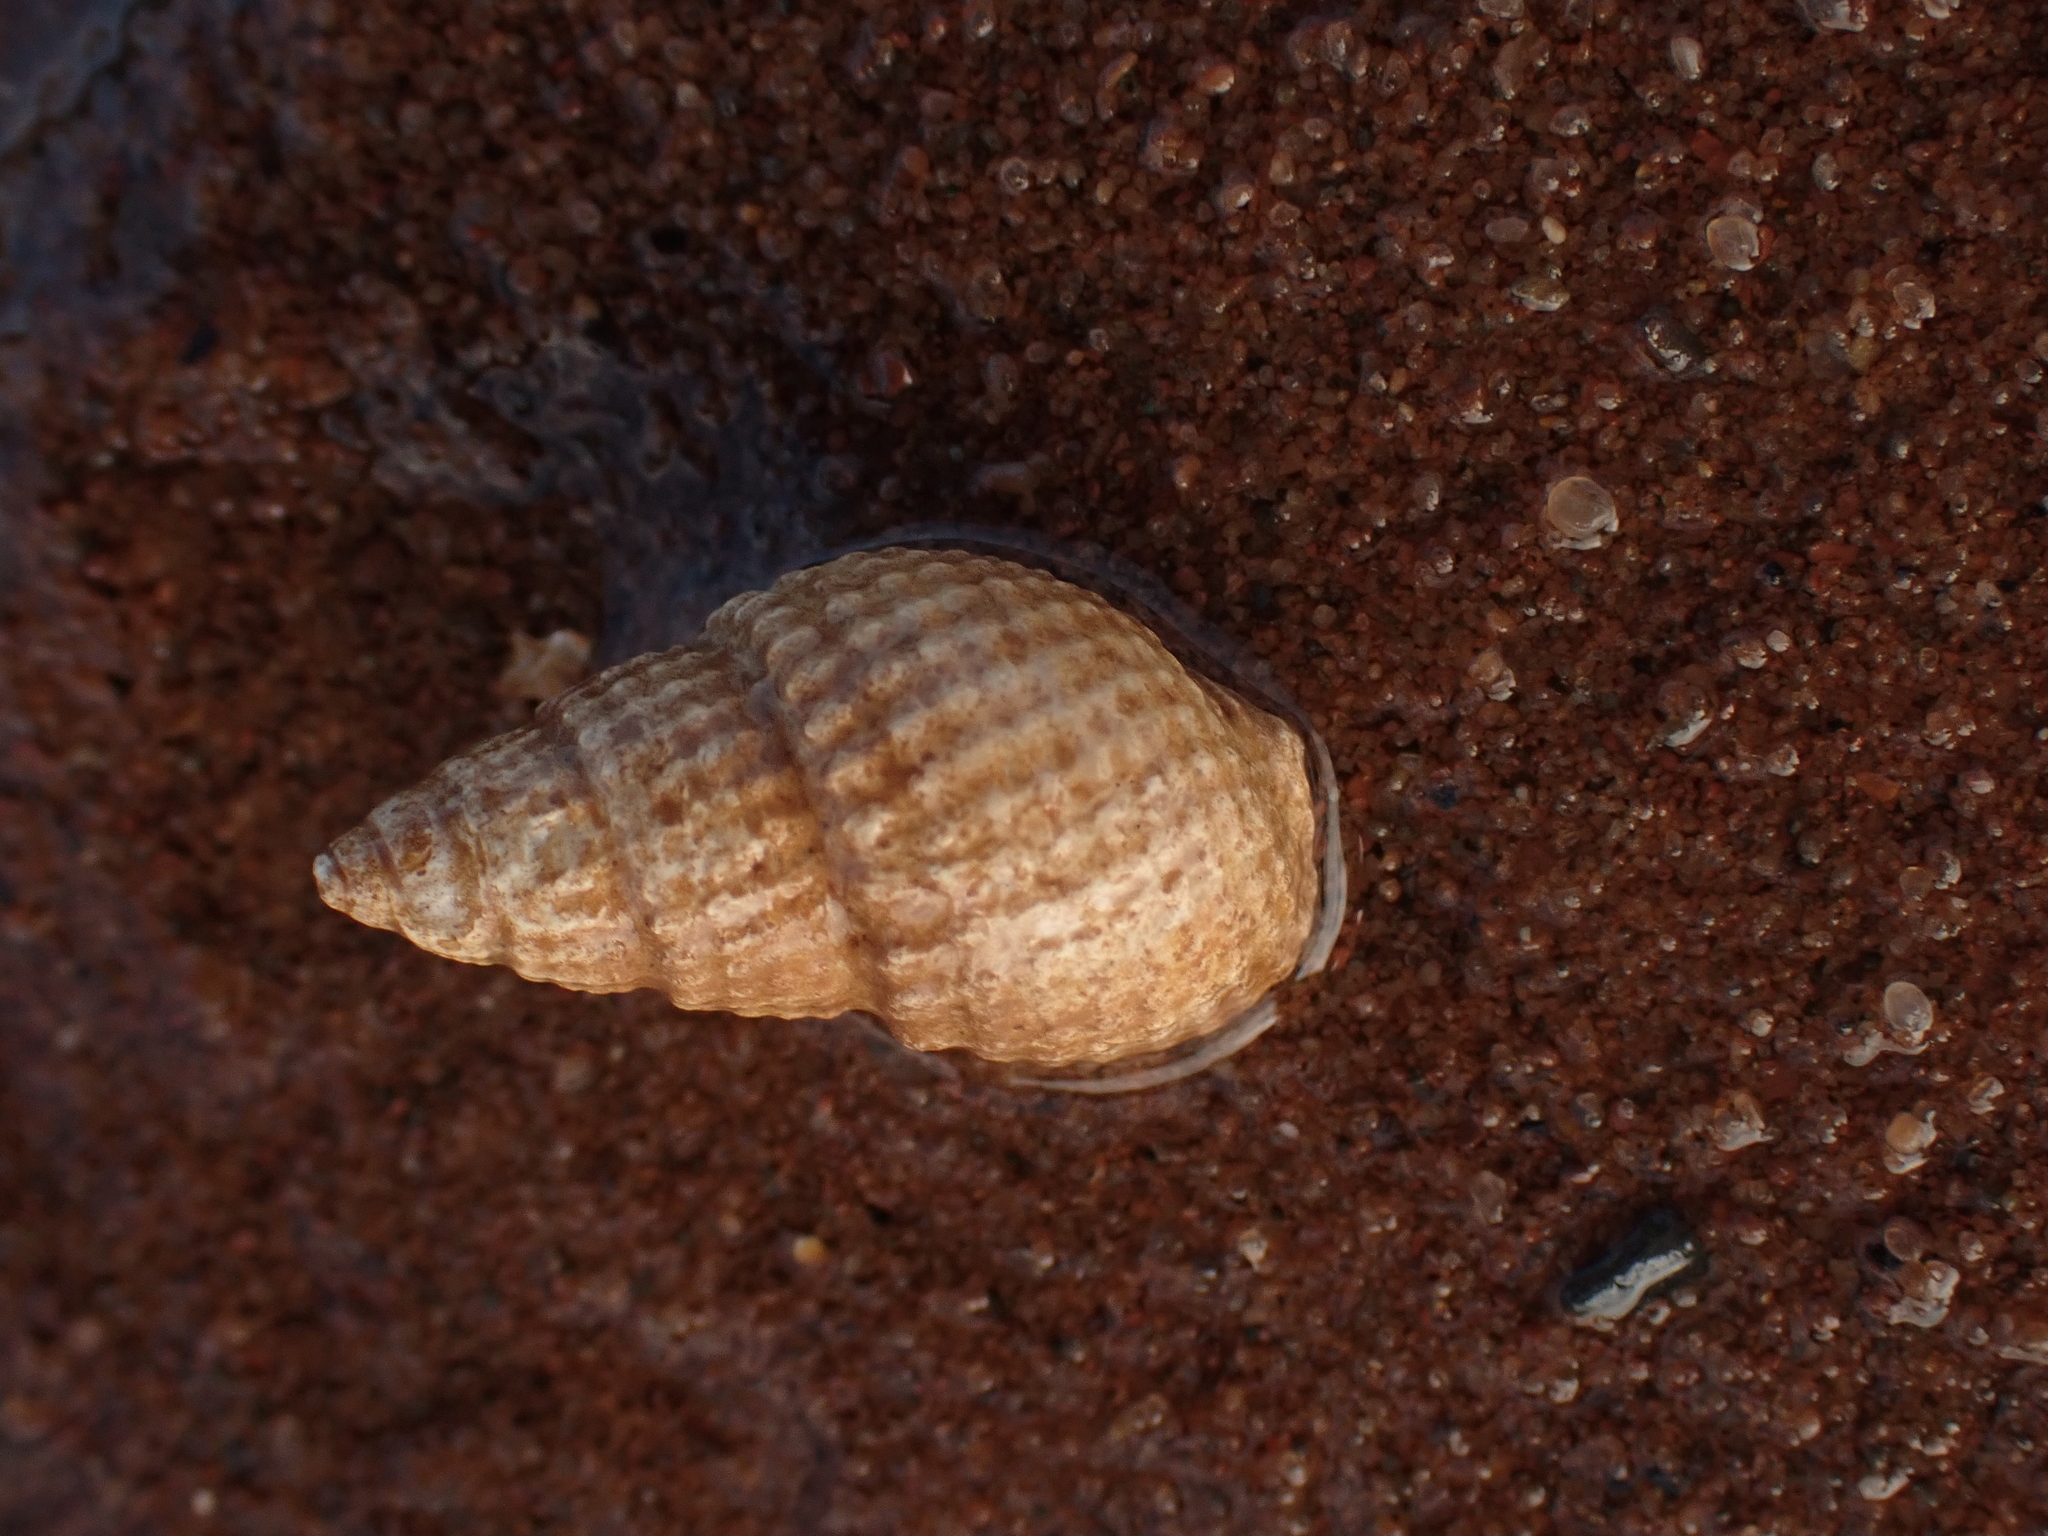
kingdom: Animalia
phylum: Mollusca
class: Gastropoda
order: Neogastropoda
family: Nassariidae
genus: Ilyanassa
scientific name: Ilyanassa trivittata
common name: Three-line mudsnail
